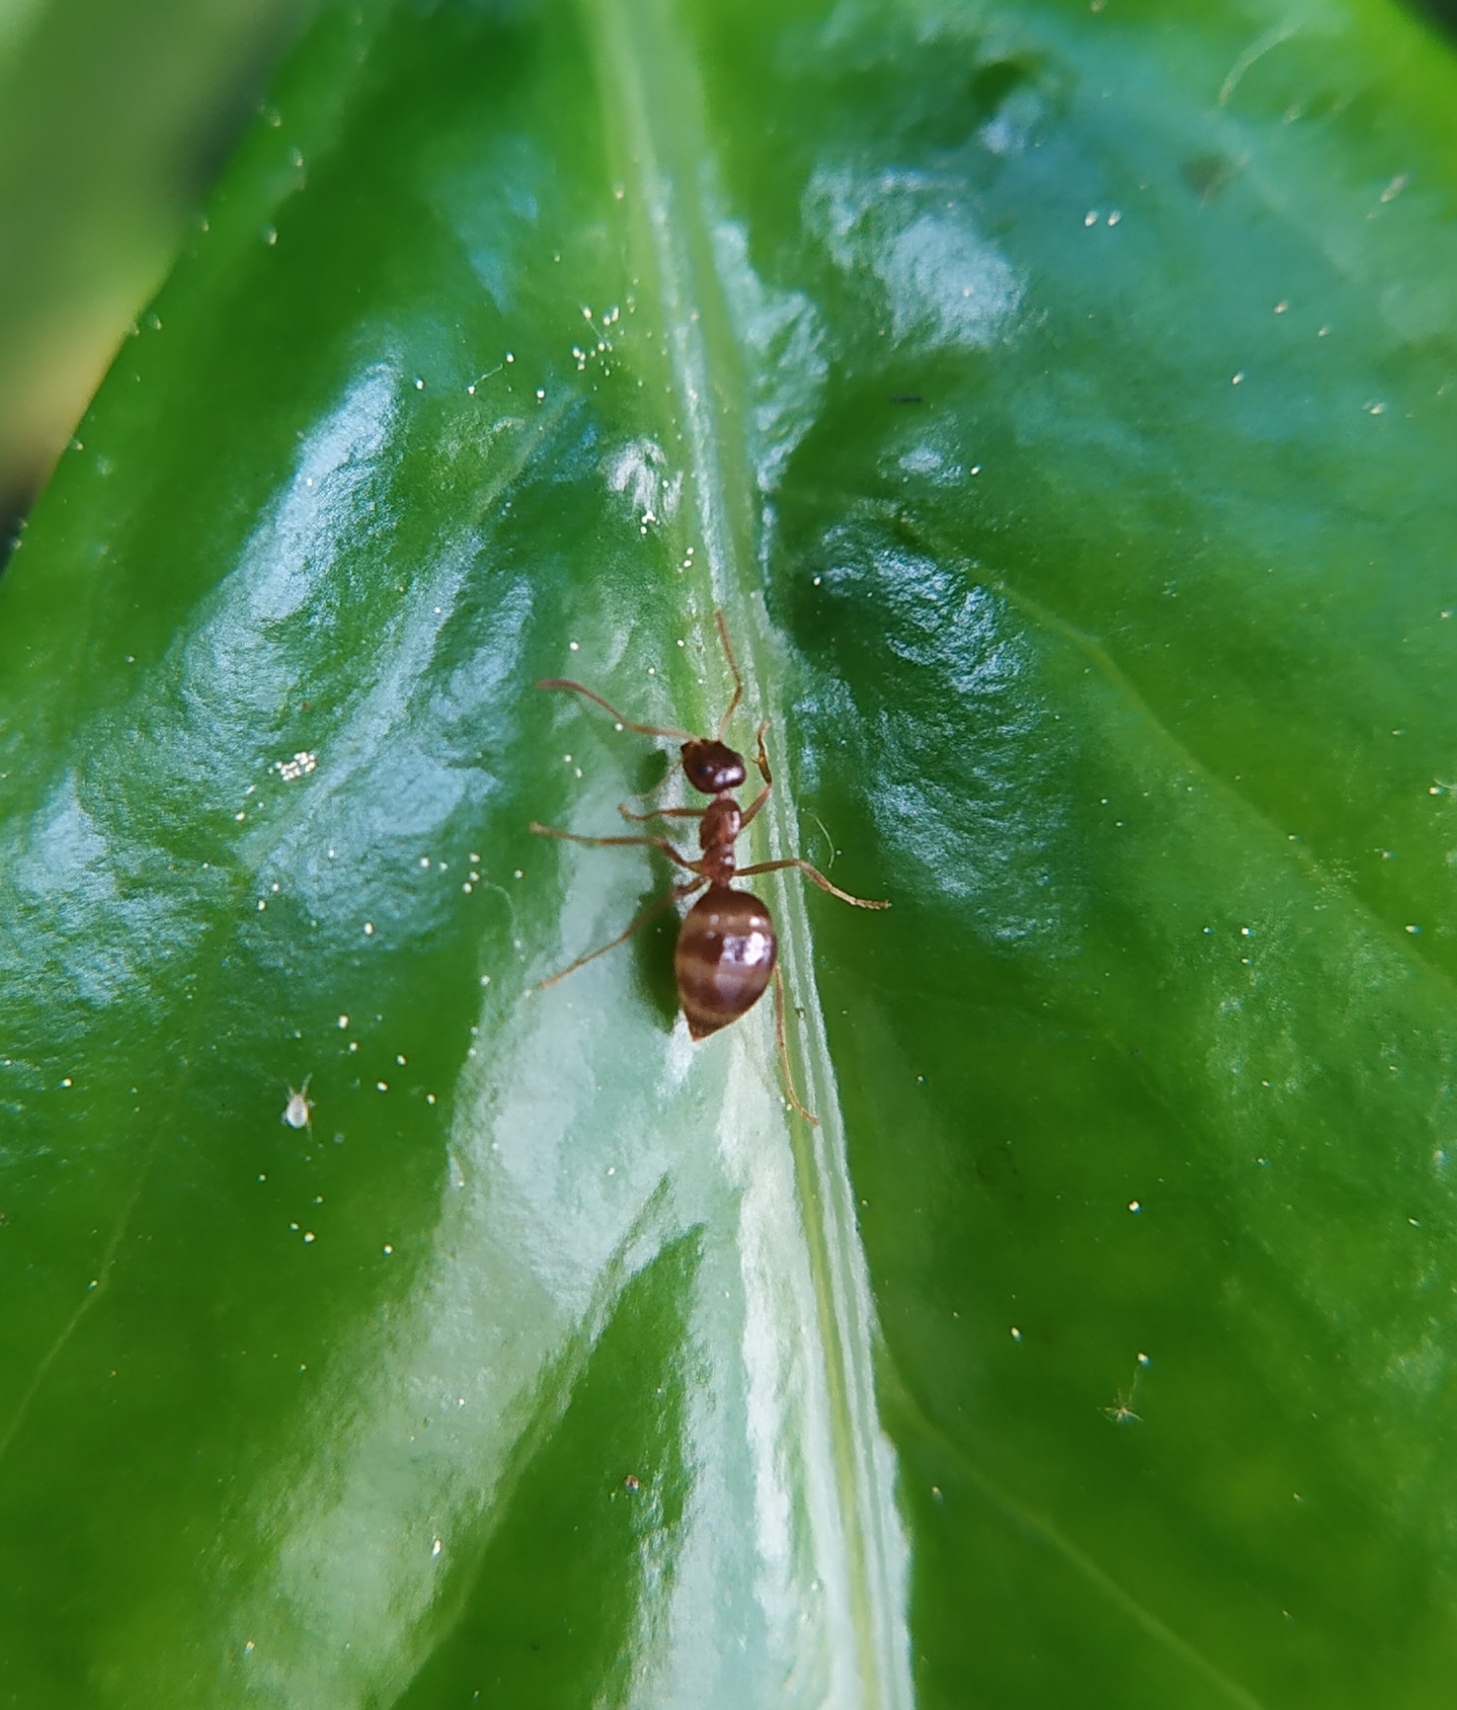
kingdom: Animalia
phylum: Arthropoda
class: Insecta
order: Hymenoptera
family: Formicidae
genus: Prenolepis
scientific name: Prenolepis nitens
